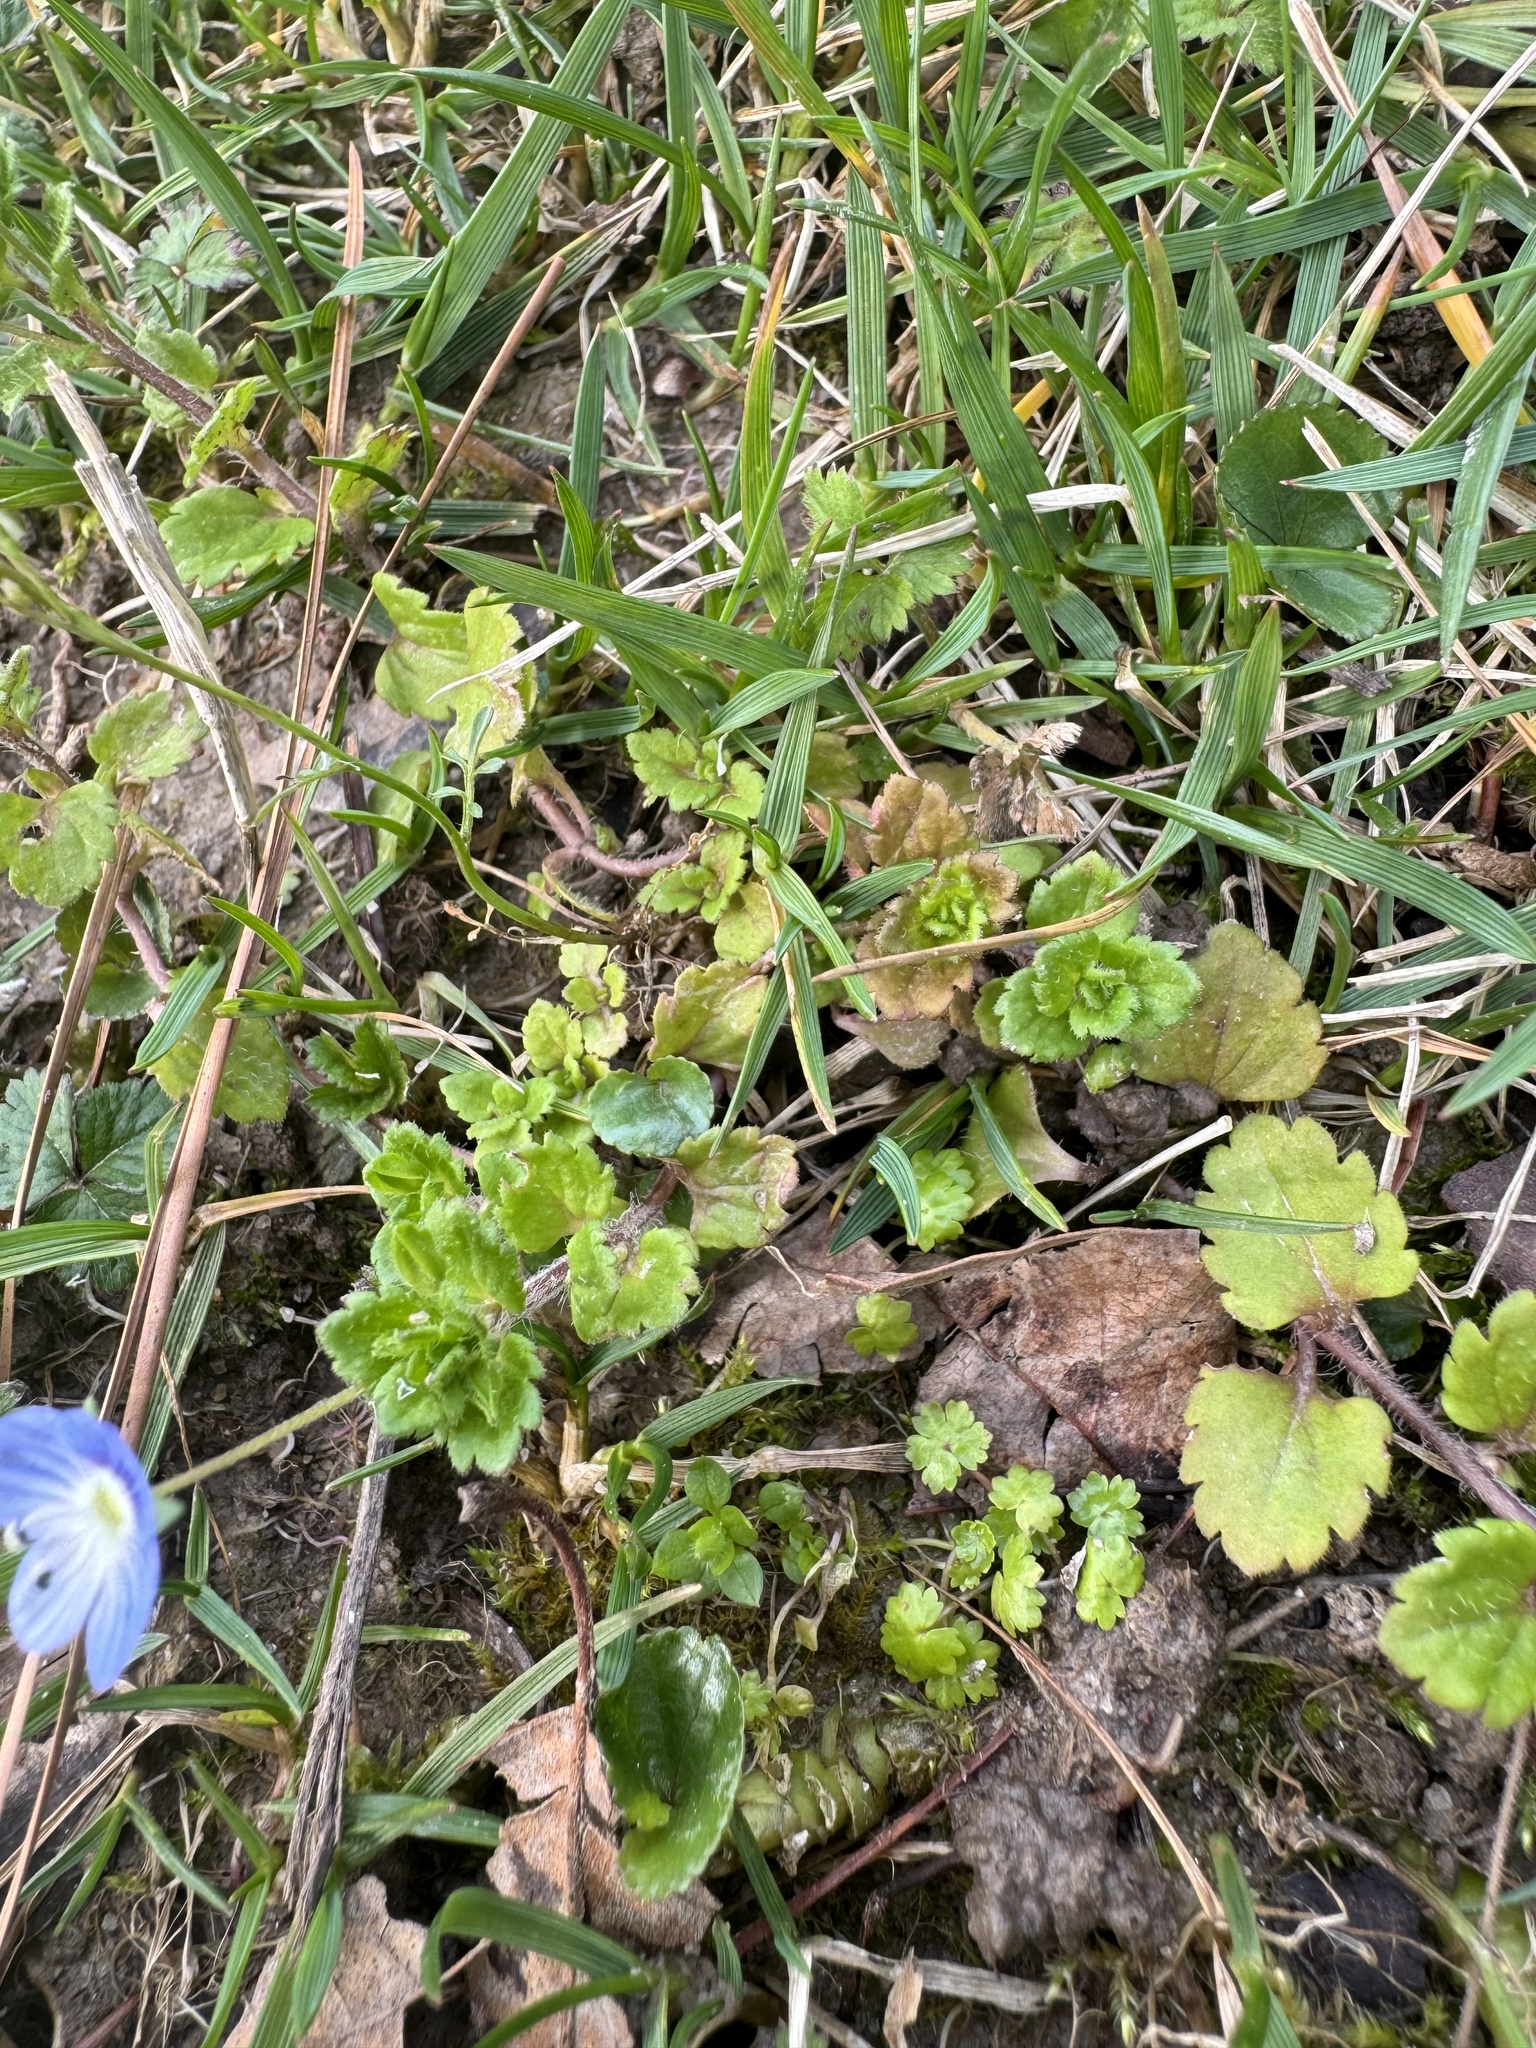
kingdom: Plantae
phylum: Tracheophyta
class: Magnoliopsida
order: Lamiales
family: Plantaginaceae
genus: Veronica
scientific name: Veronica persica
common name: Common field-speedwell
